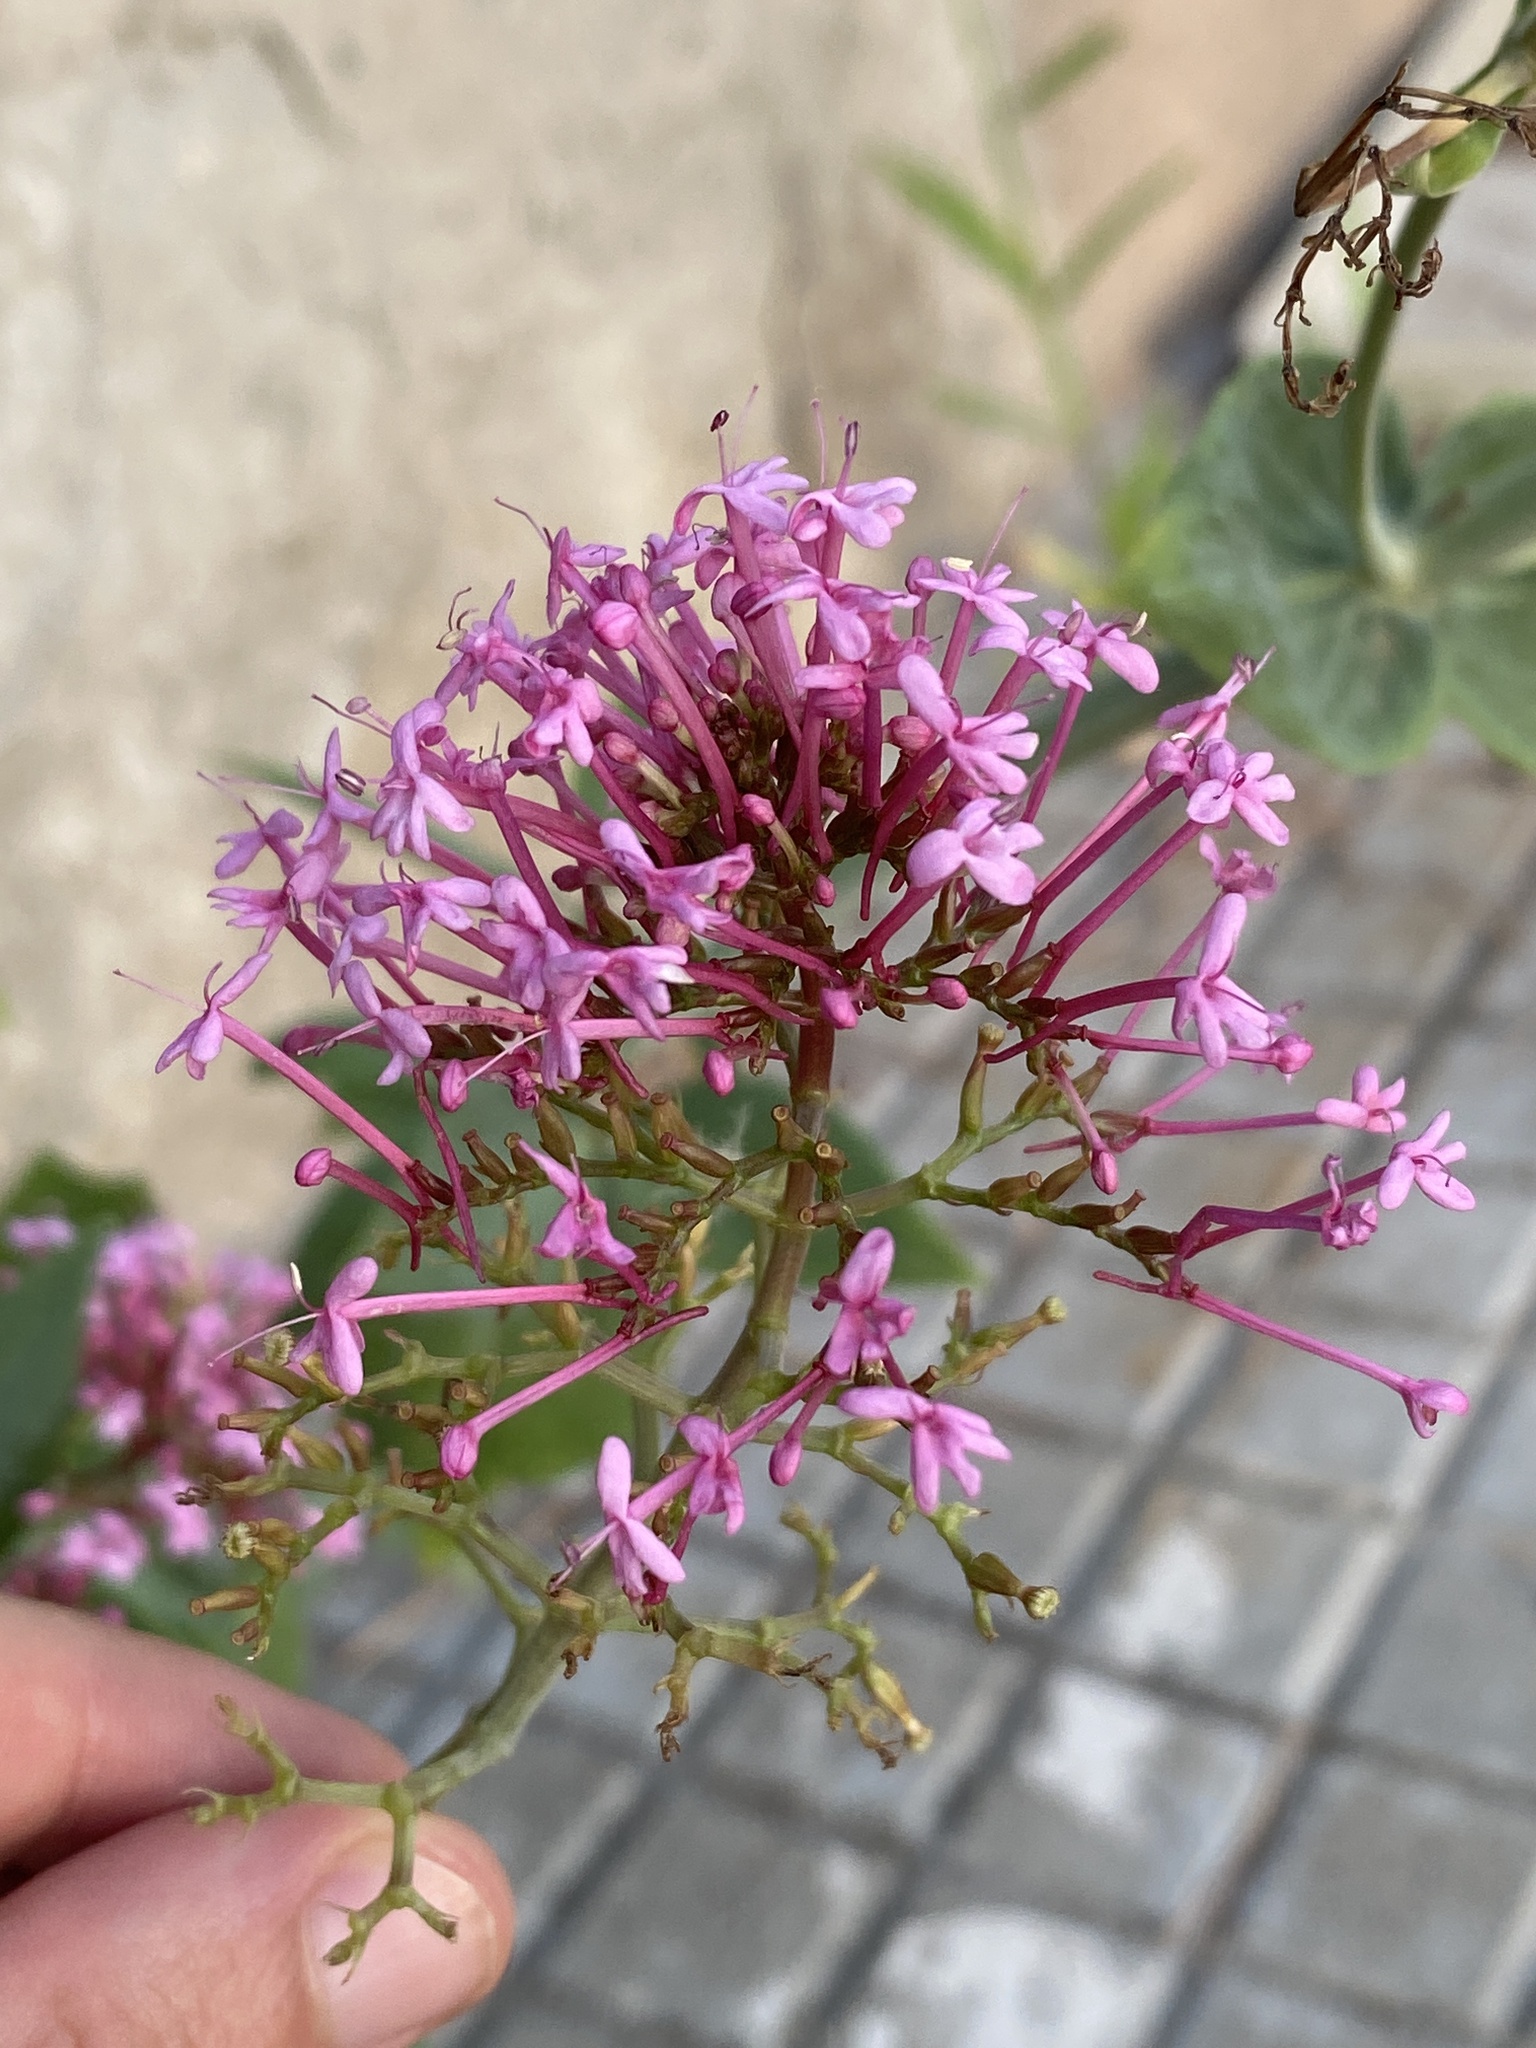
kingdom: Plantae
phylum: Tracheophyta
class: Magnoliopsida
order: Dipsacales
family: Caprifoliaceae
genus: Centranthus
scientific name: Centranthus ruber
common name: Red valerian
